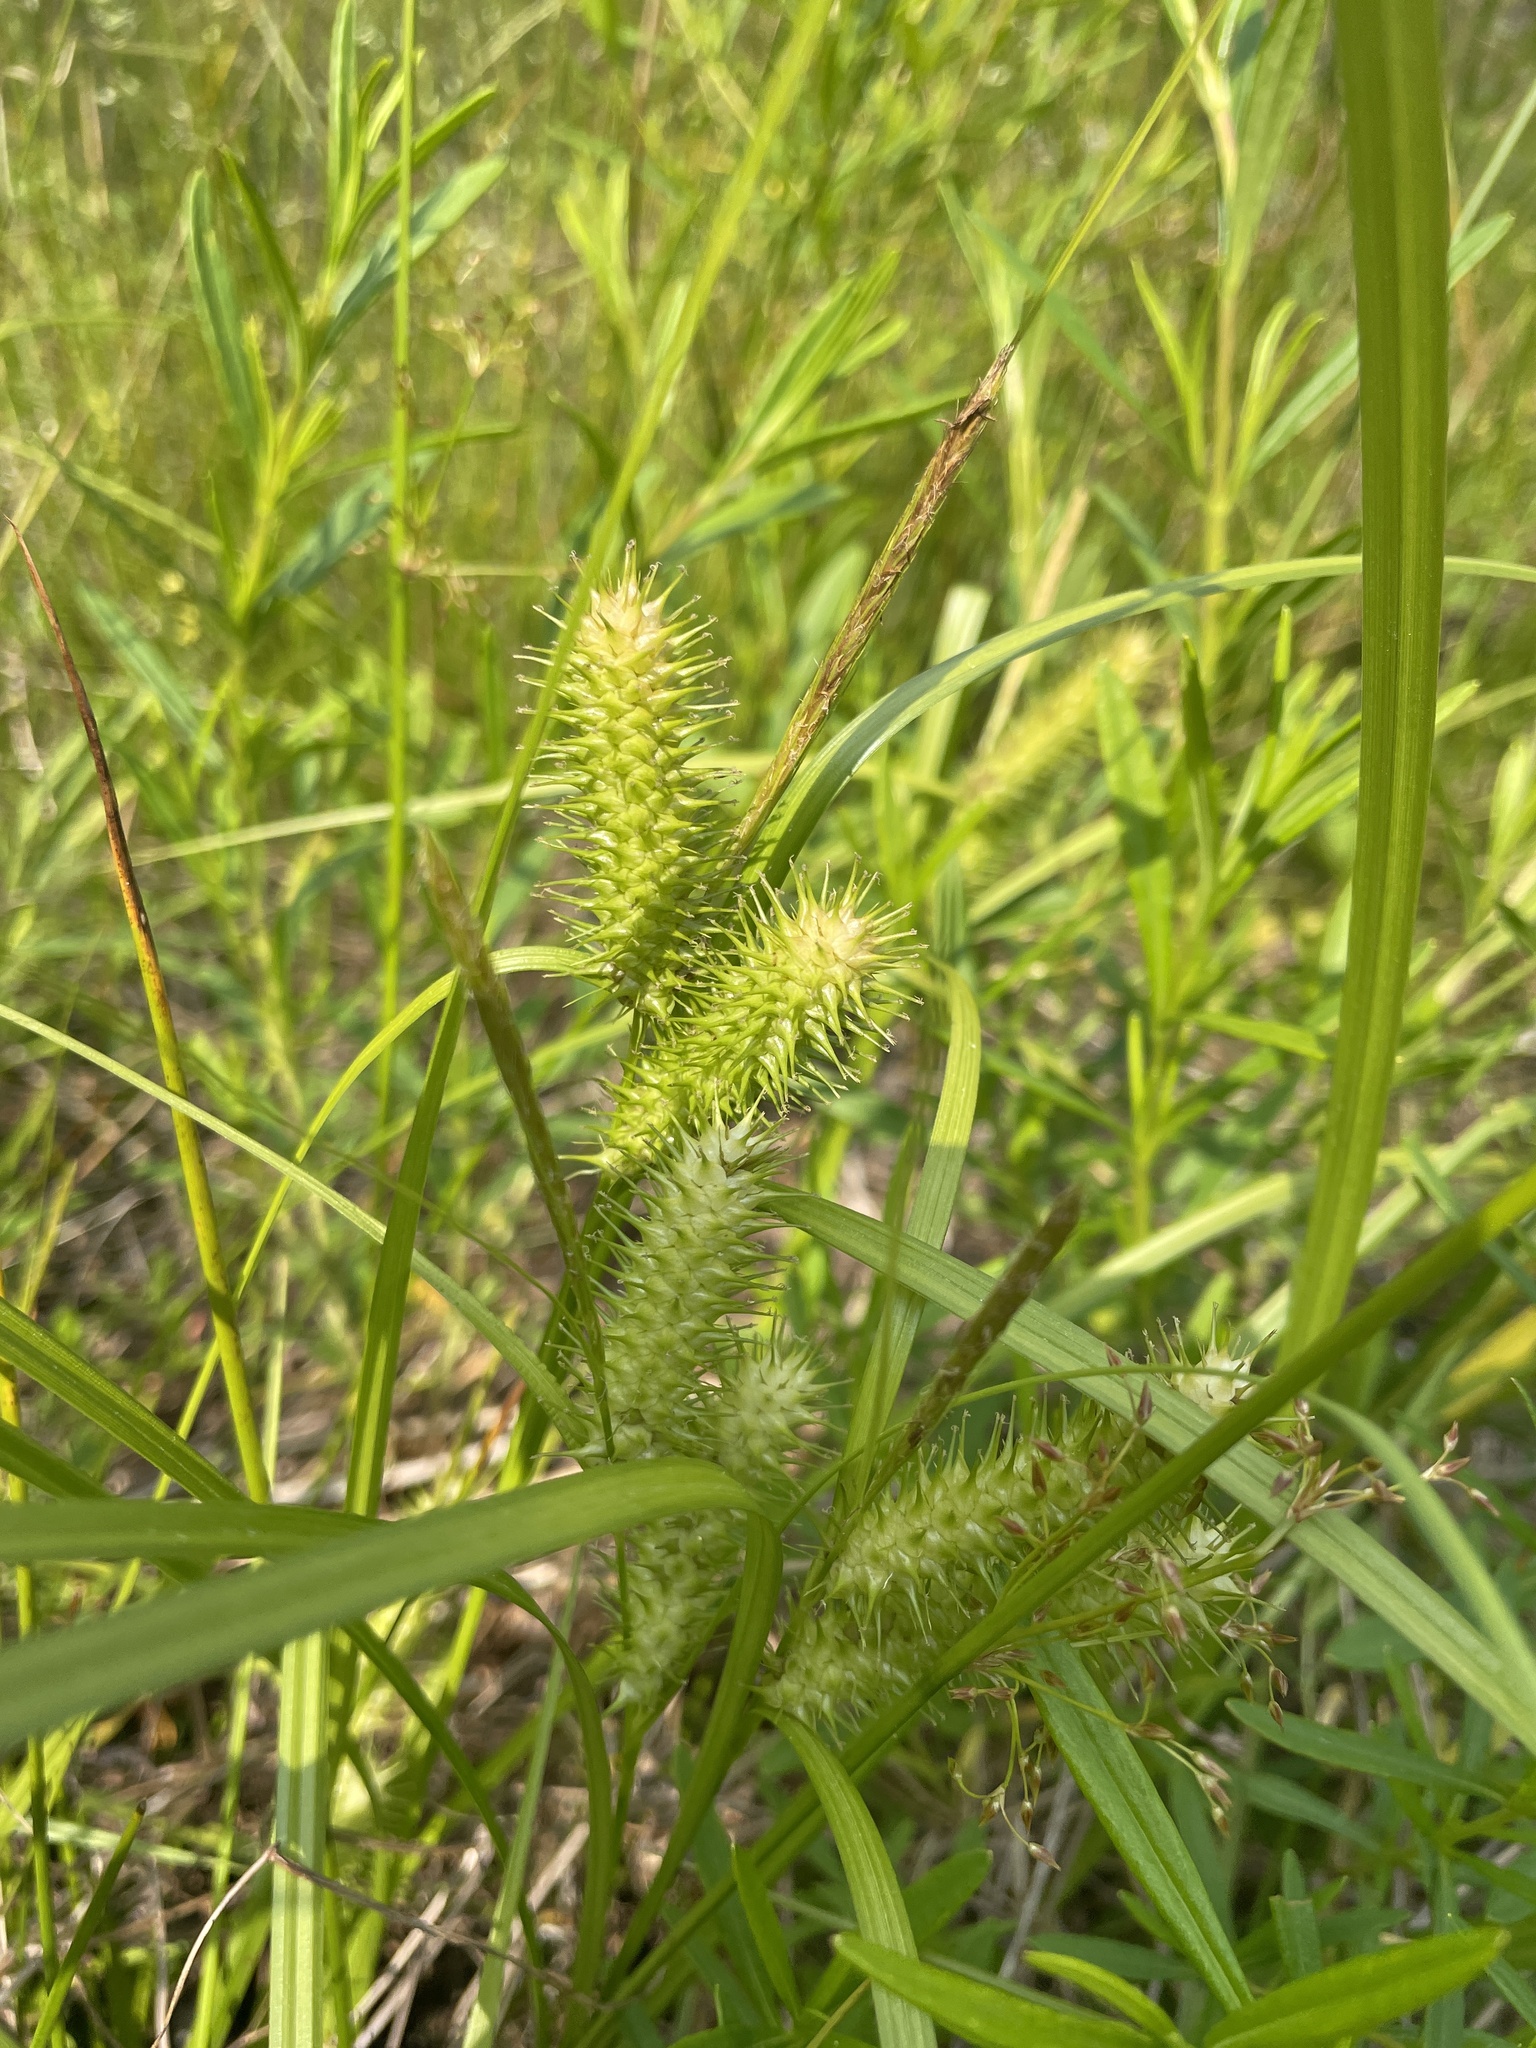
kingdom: Plantae
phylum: Tracheophyta
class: Liliopsida
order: Poales
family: Cyperaceae
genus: Carex
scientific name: Carex lurida
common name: Sallow sedge
